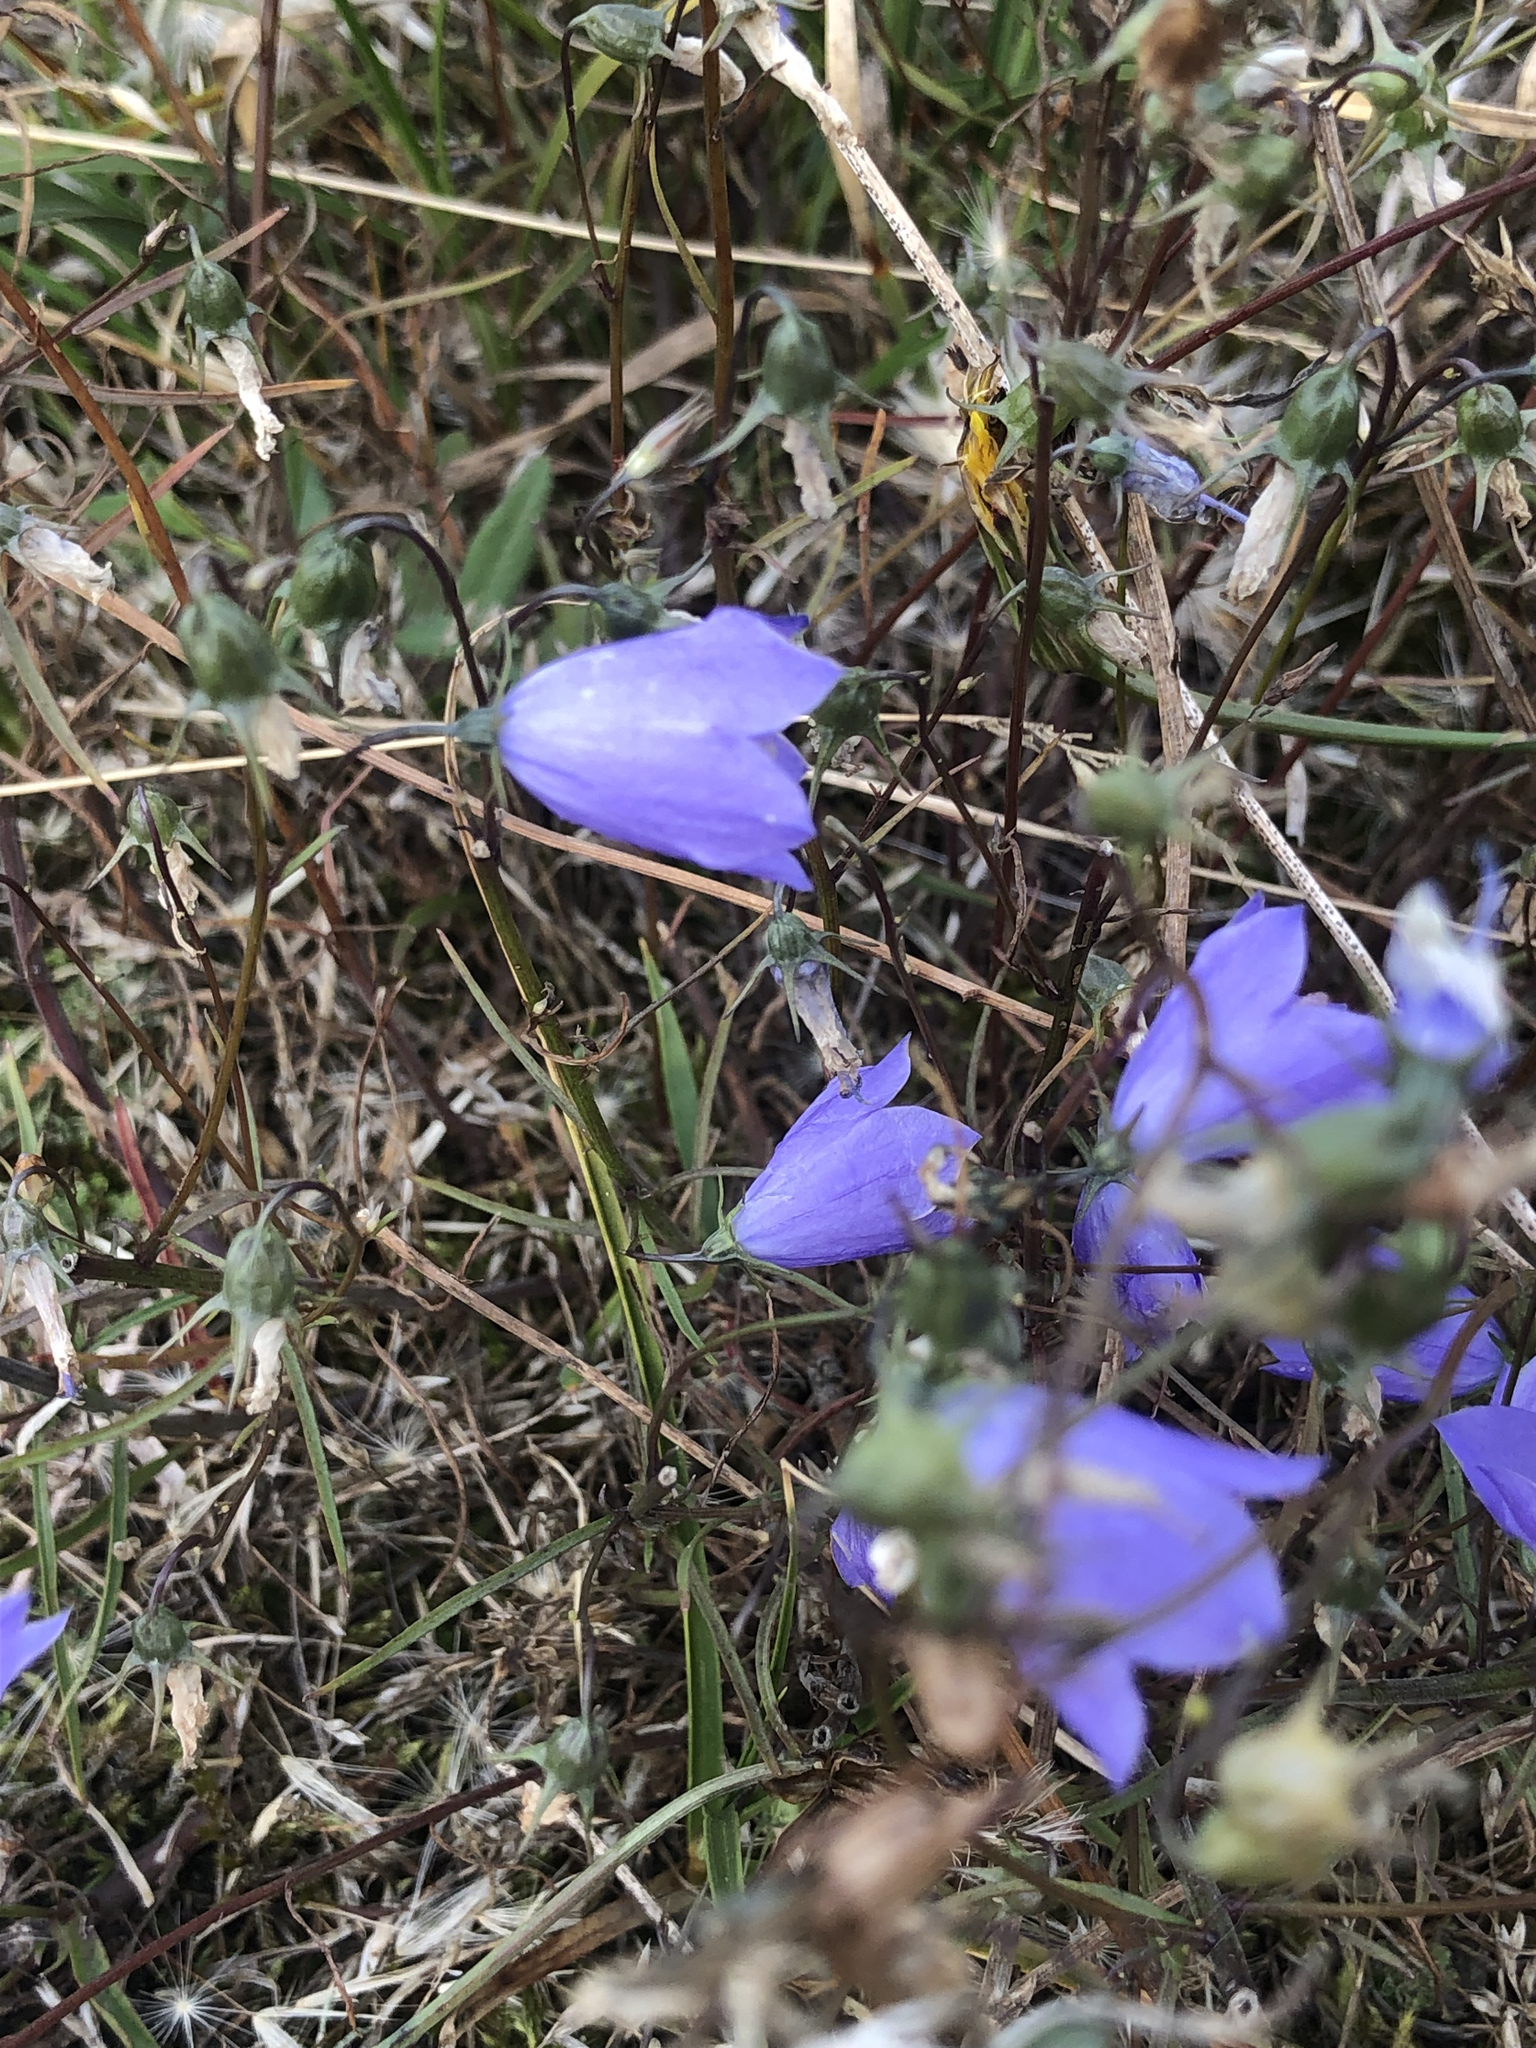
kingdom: Plantae
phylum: Tracheophyta
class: Magnoliopsida
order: Asterales
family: Campanulaceae
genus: Campanula
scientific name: Campanula rotundifolia
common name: Harebell
